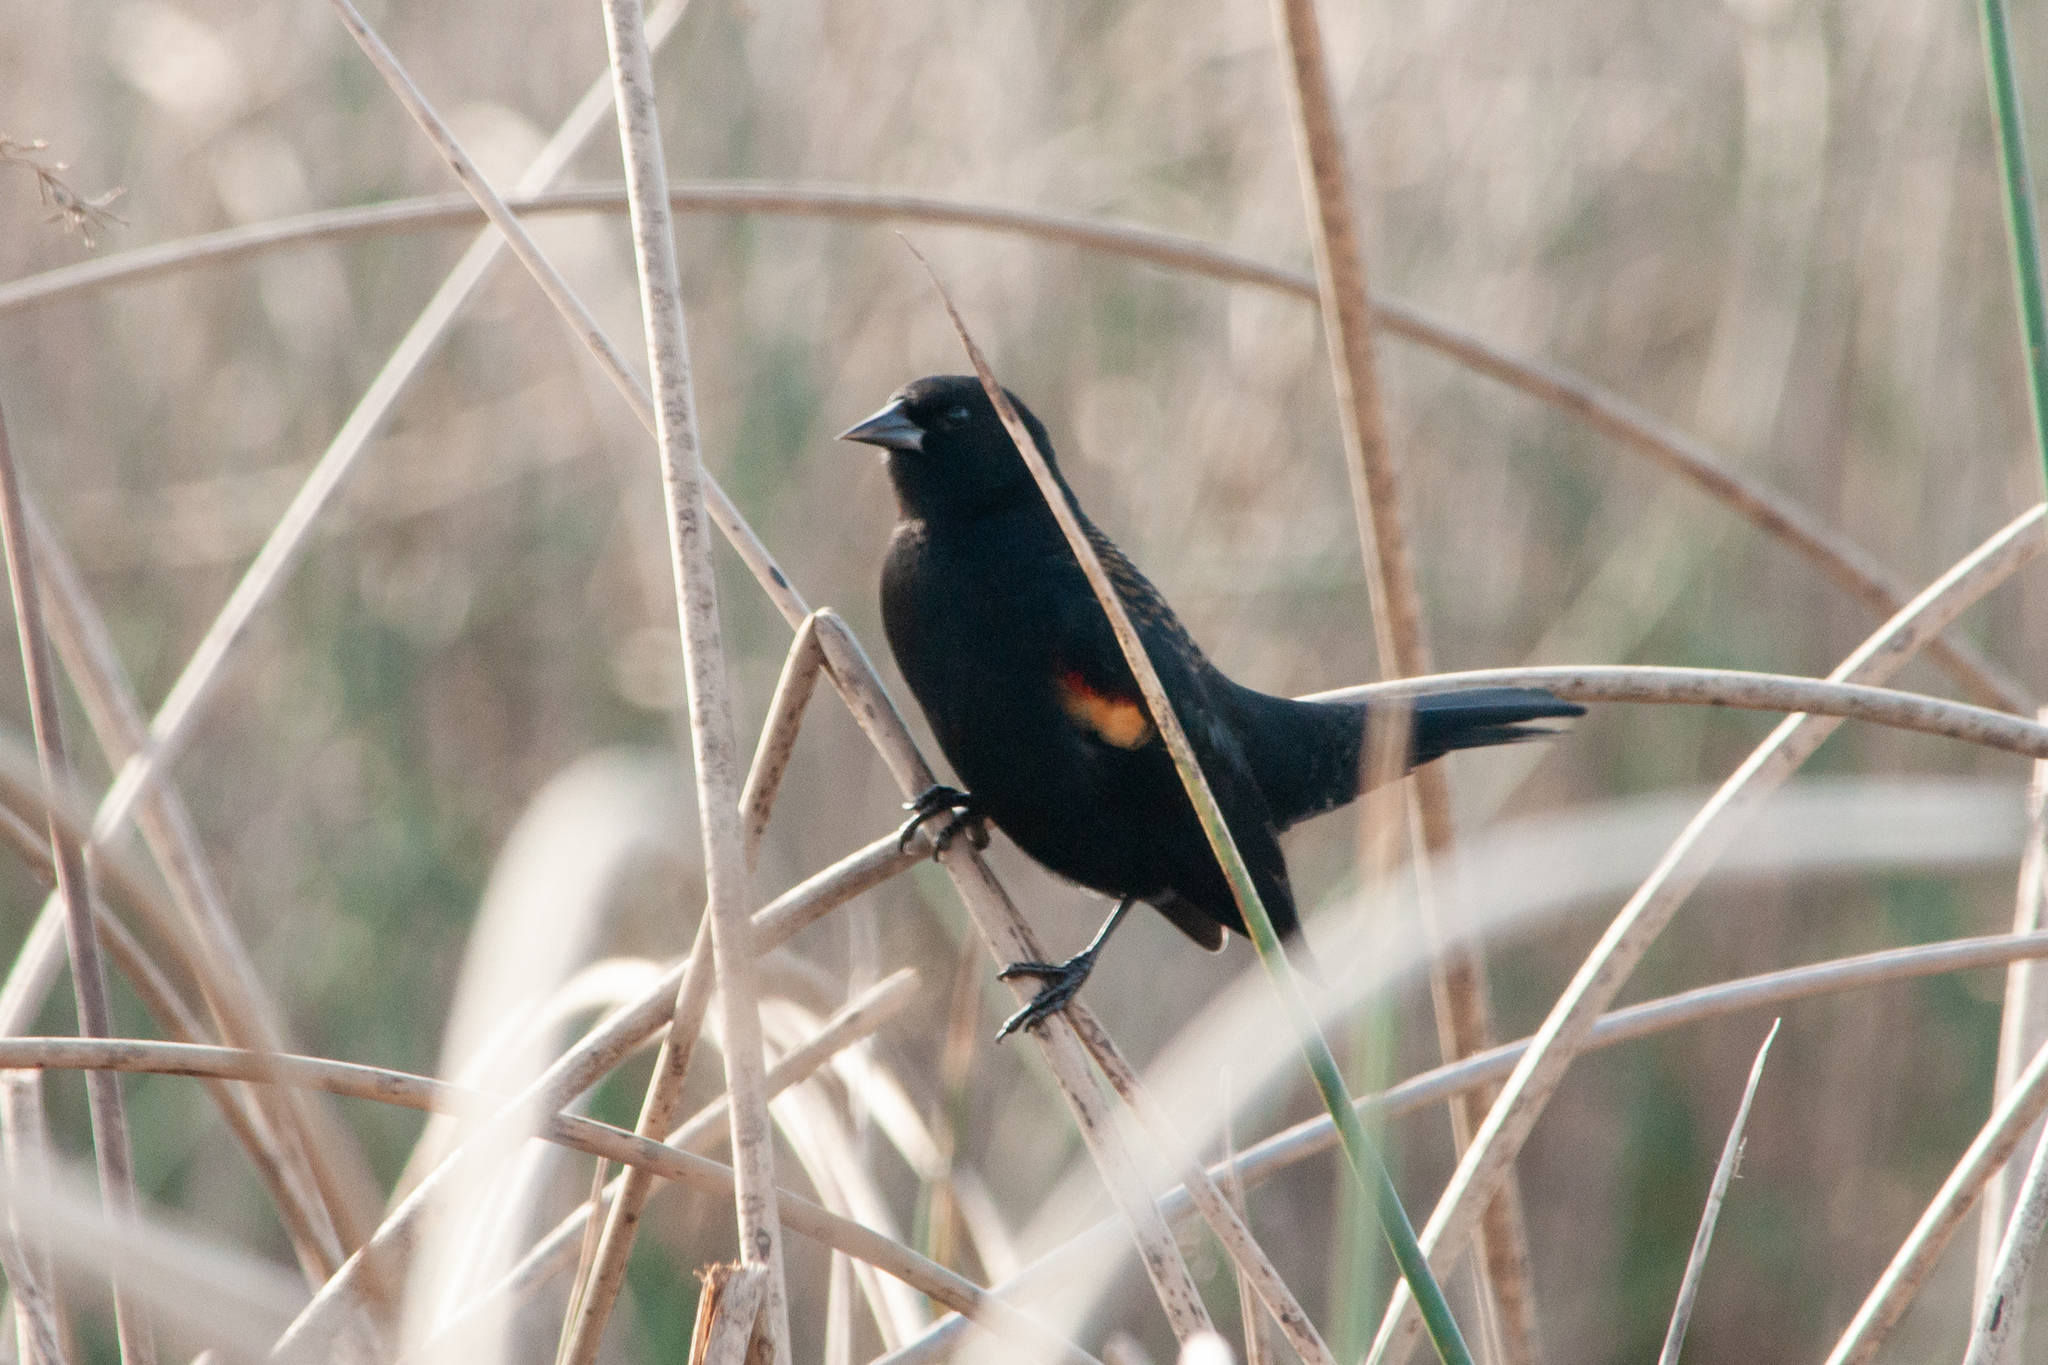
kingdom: Animalia
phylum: Chordata
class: Aves
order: Passeriformes
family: Icteridae
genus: Agelaius
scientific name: Agelaius phoeniceus
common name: Red-winged blackbird
